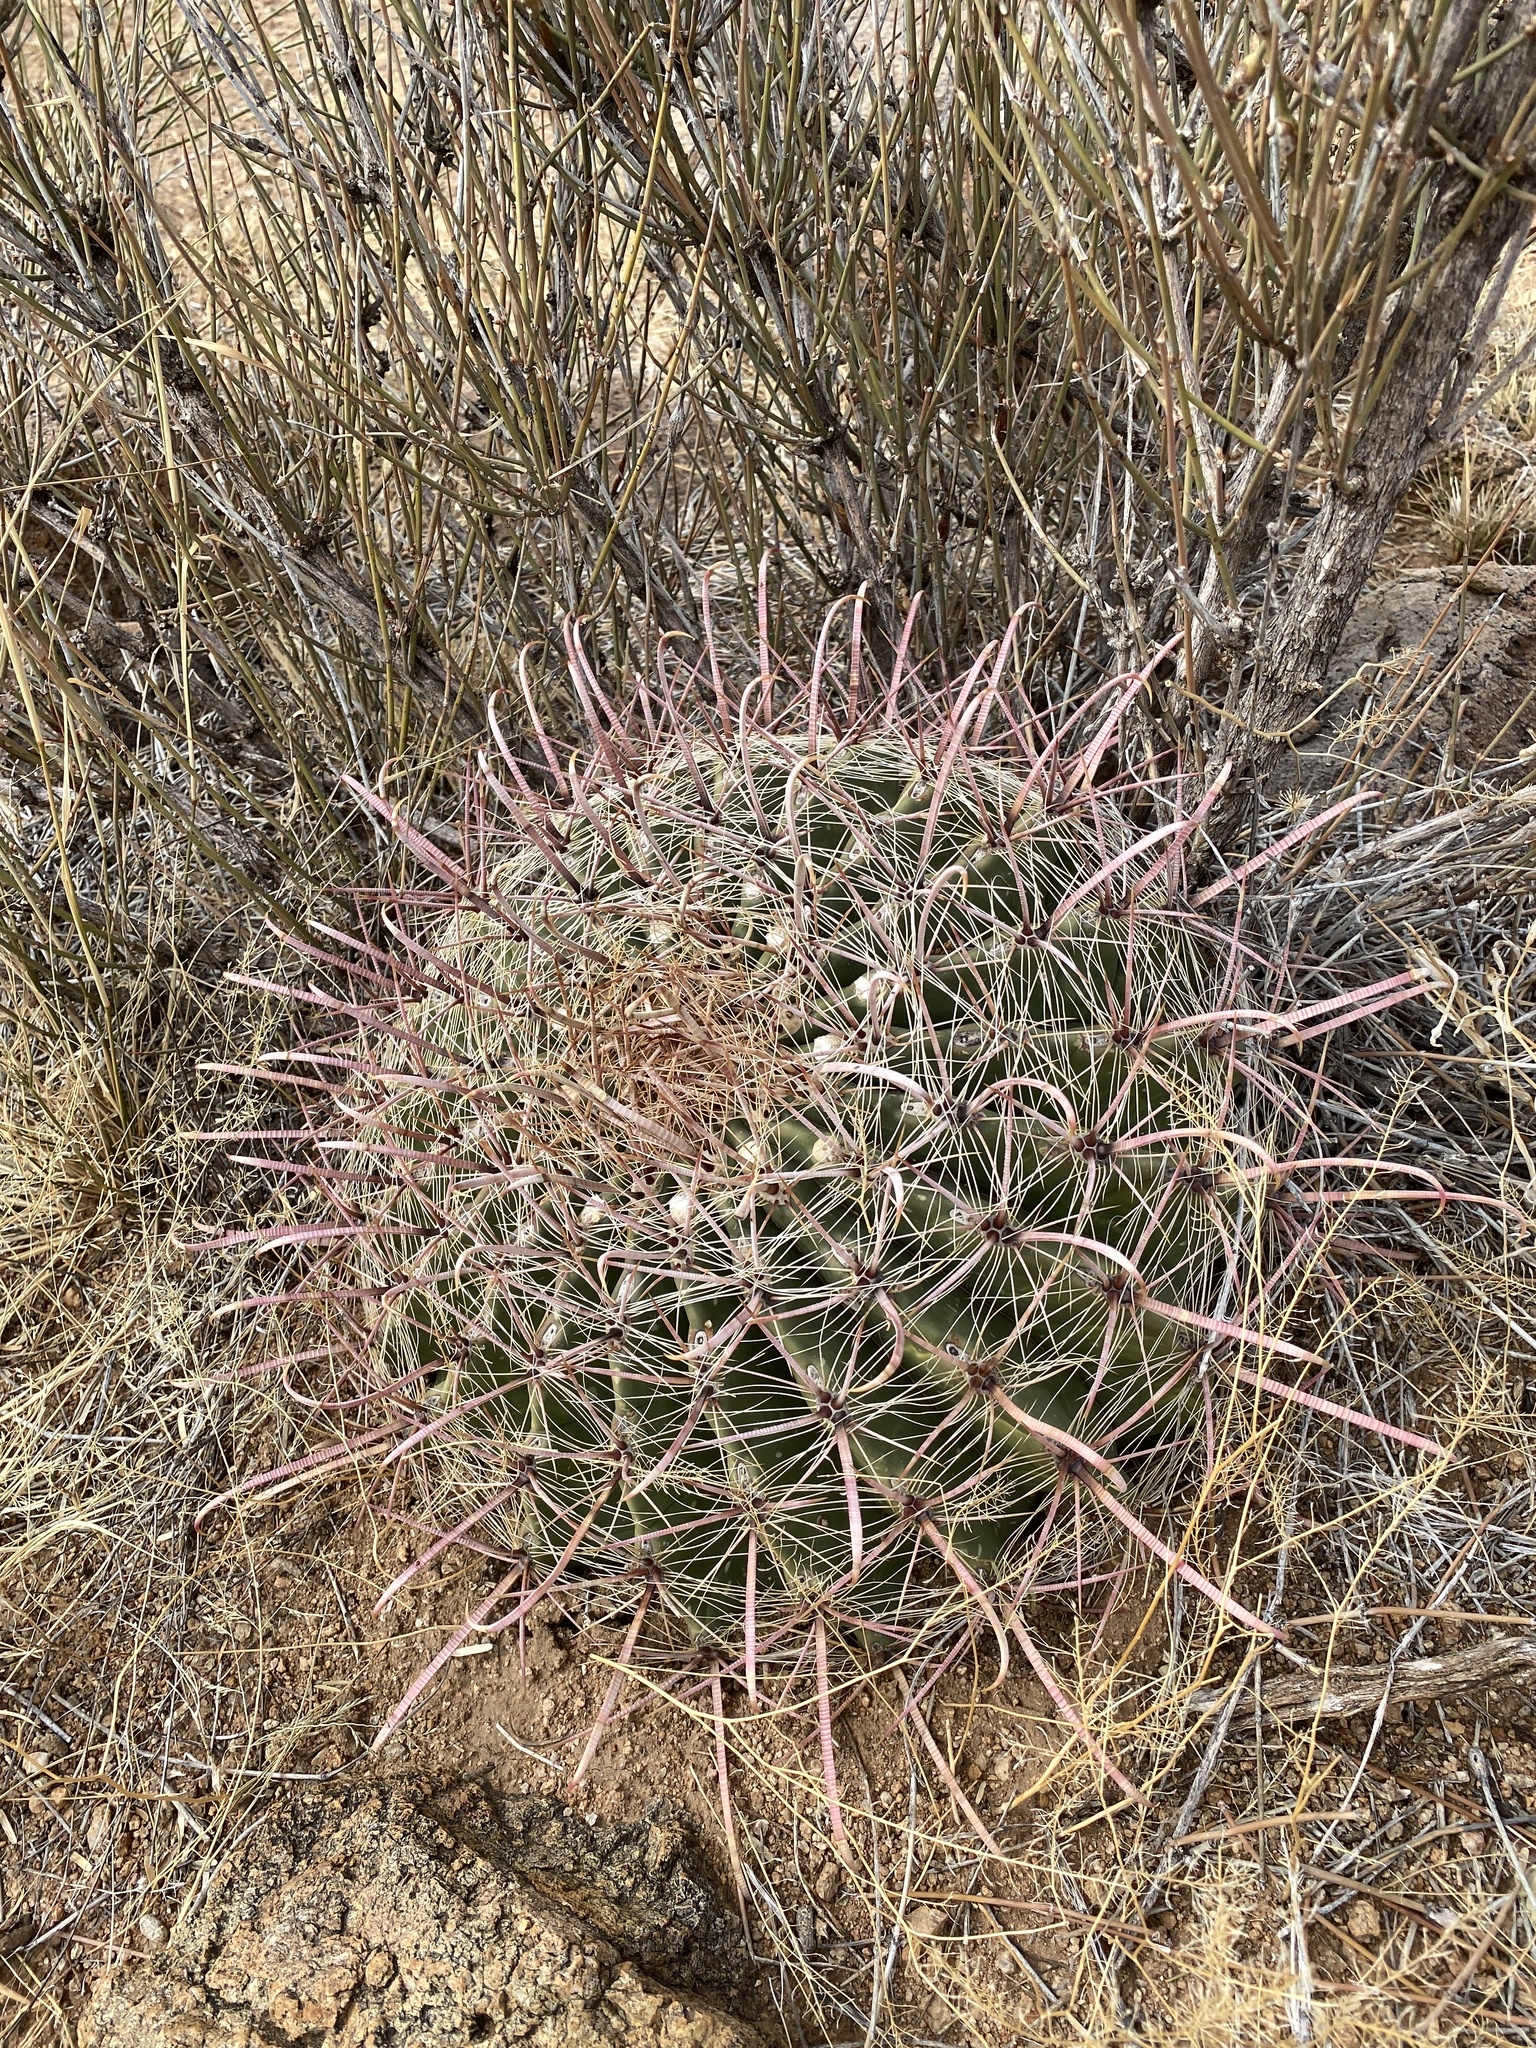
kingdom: Plantae
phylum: Tracheophyta
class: Magnoliopsida
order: Caryophyllales
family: Cactaceae
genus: Ferocactus
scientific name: Ferocactus wislizeni
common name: Candy barrel cactus
